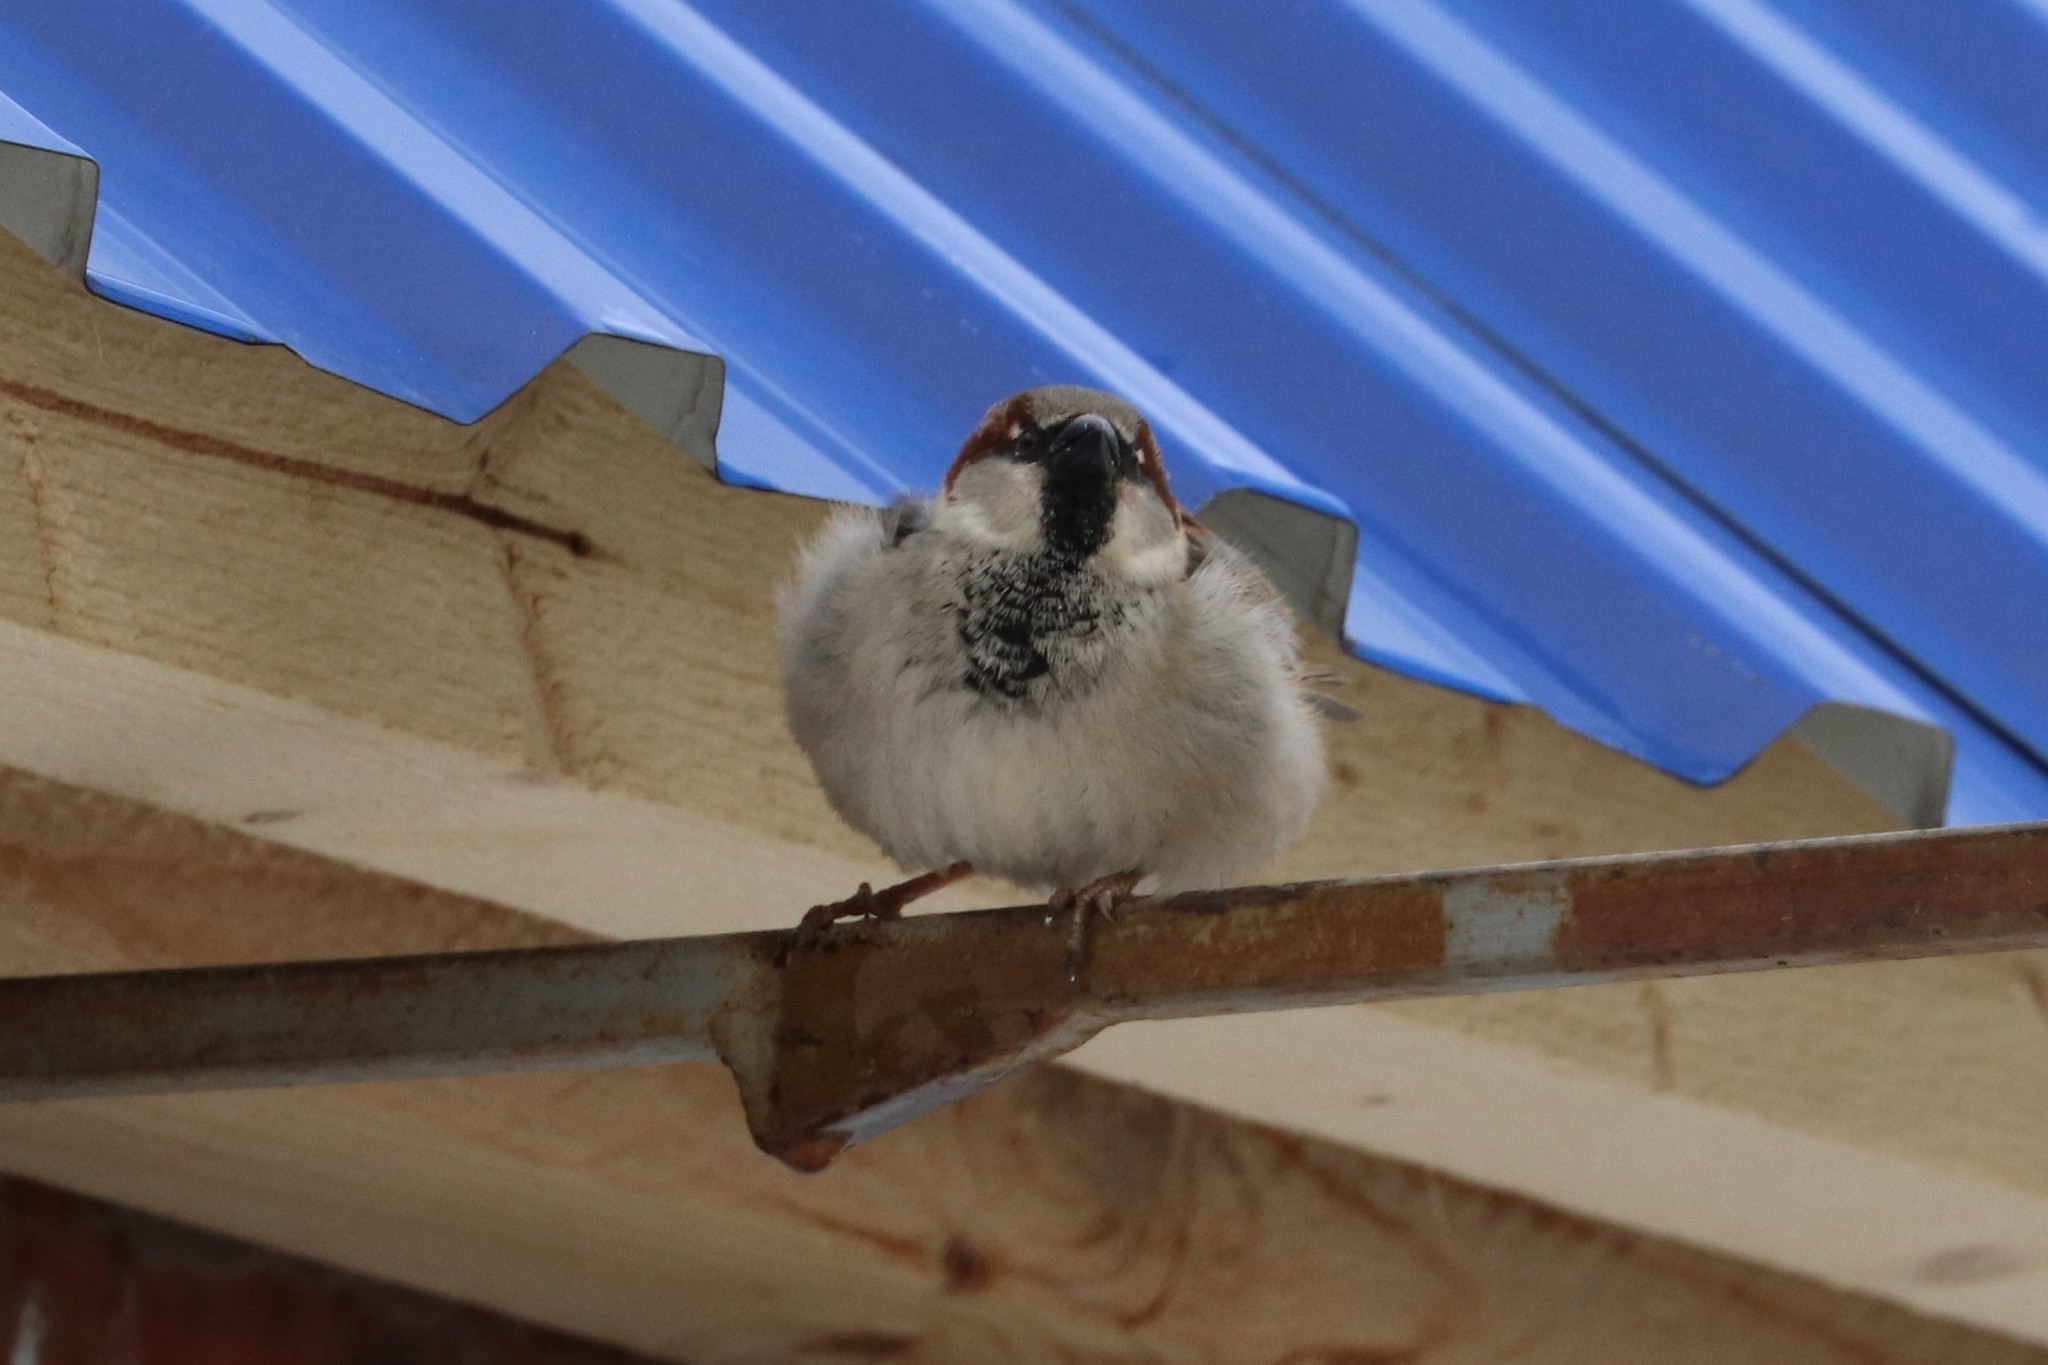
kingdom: Animalia
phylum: Chordata
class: Aves
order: Passeriformes
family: Passeridae
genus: Passer
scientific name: Passer domesticus
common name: House sparrow
